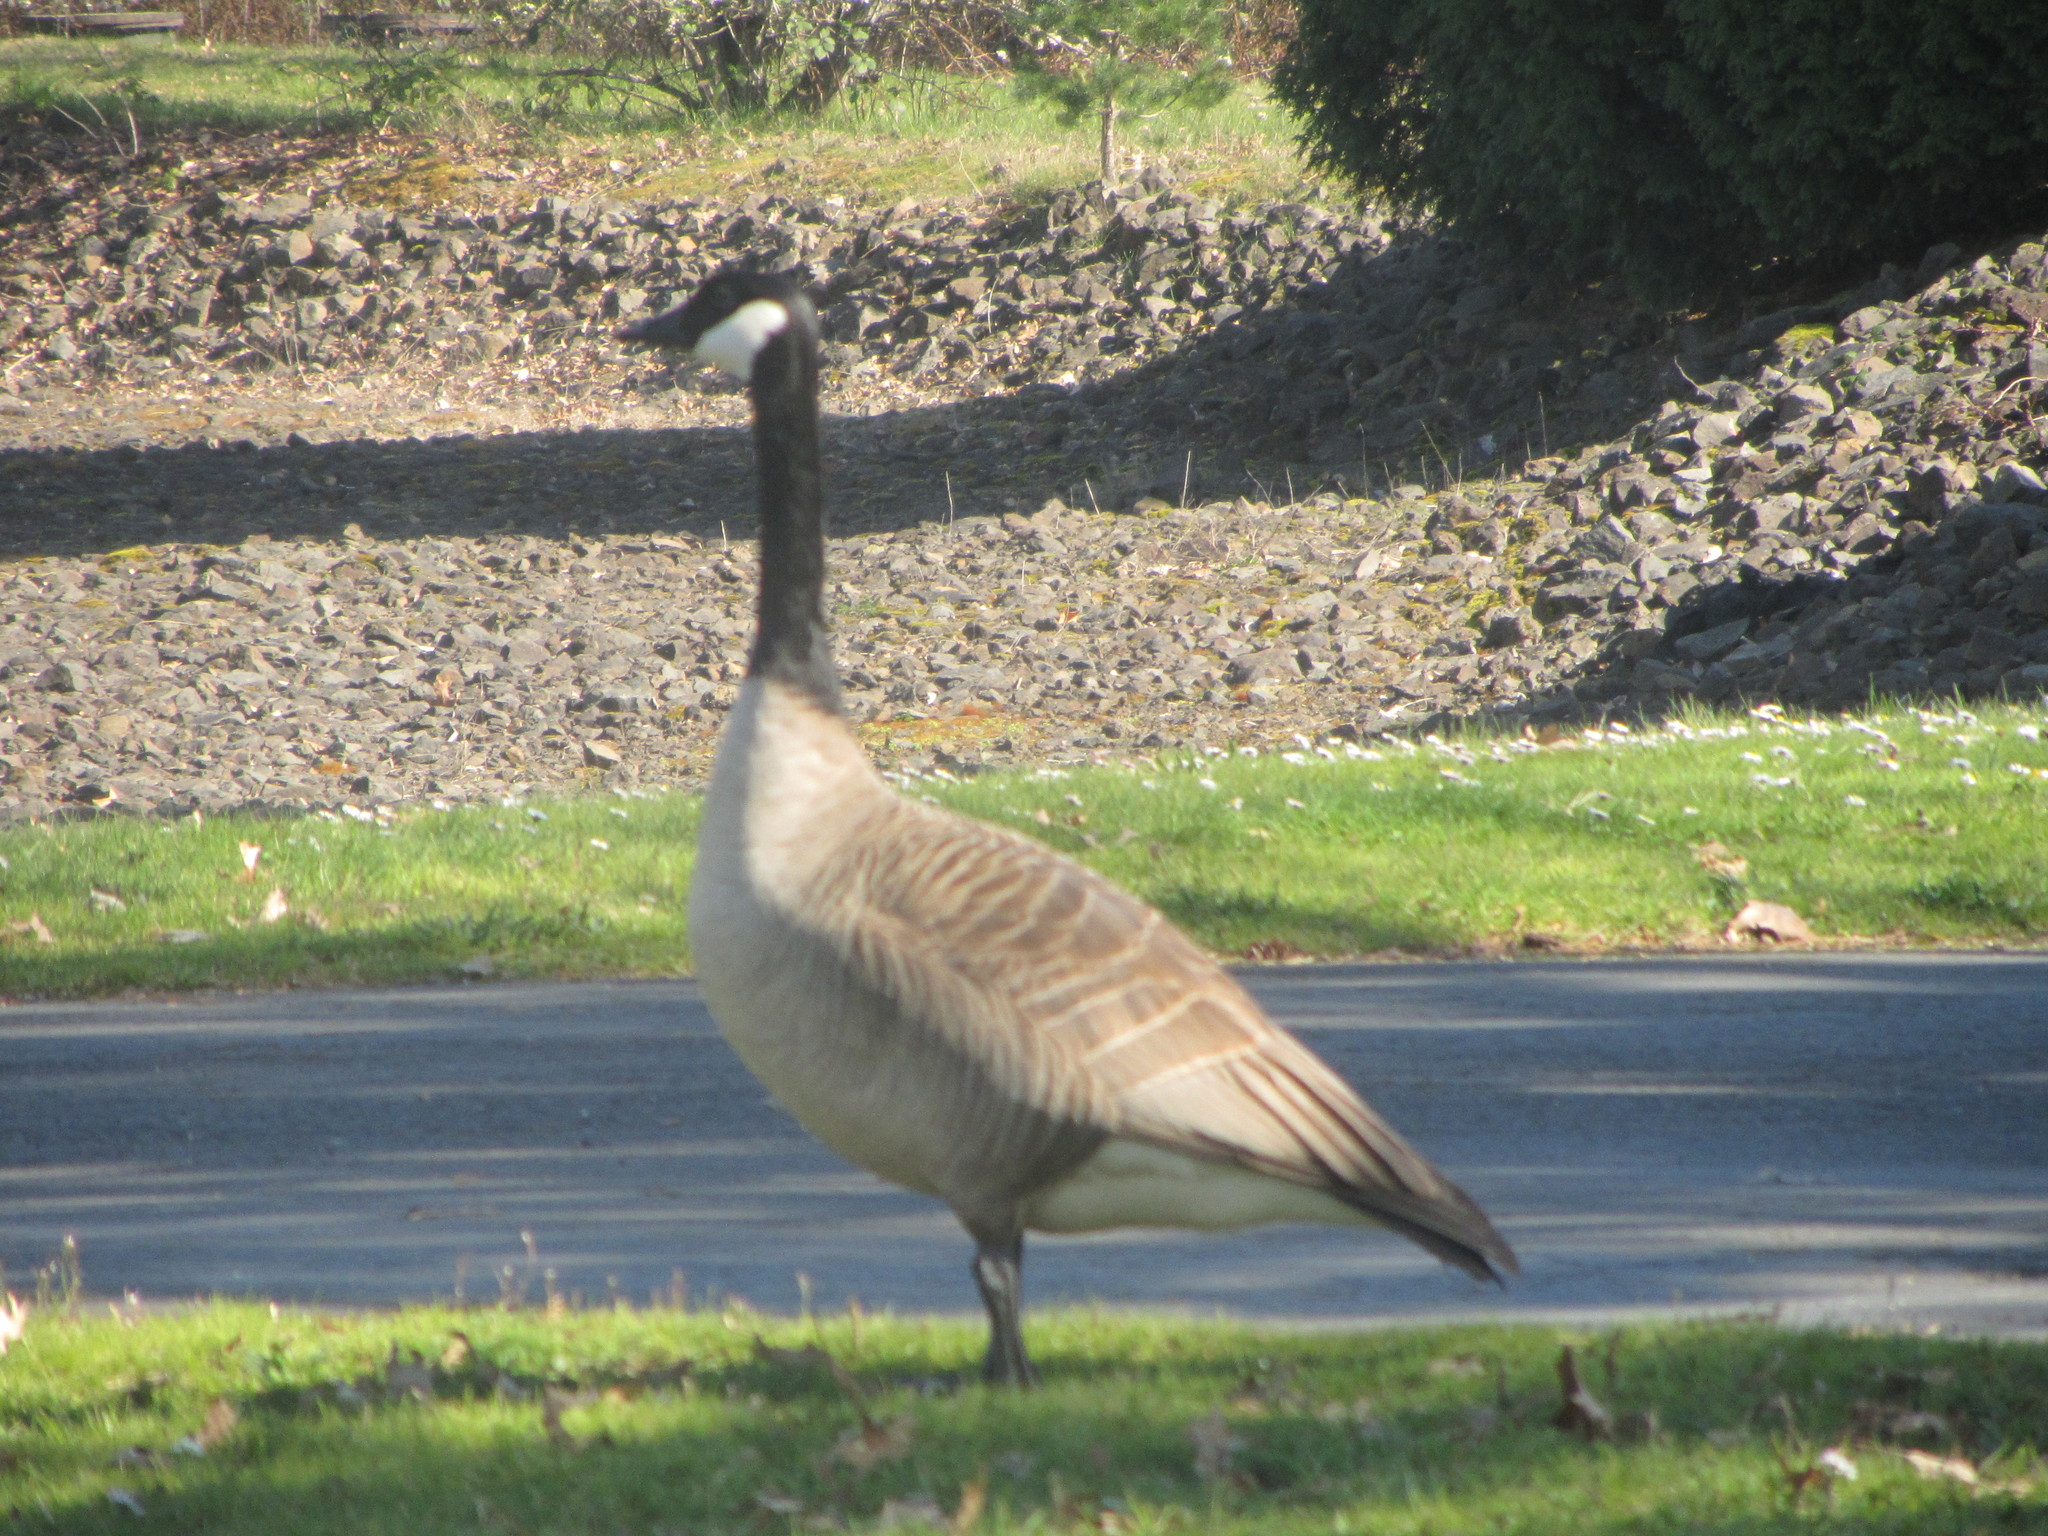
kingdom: Animalia
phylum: Chordata
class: Aves
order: Anseriformes
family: Anatidae
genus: Branta
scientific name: Branta canadensis
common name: Canada goose
